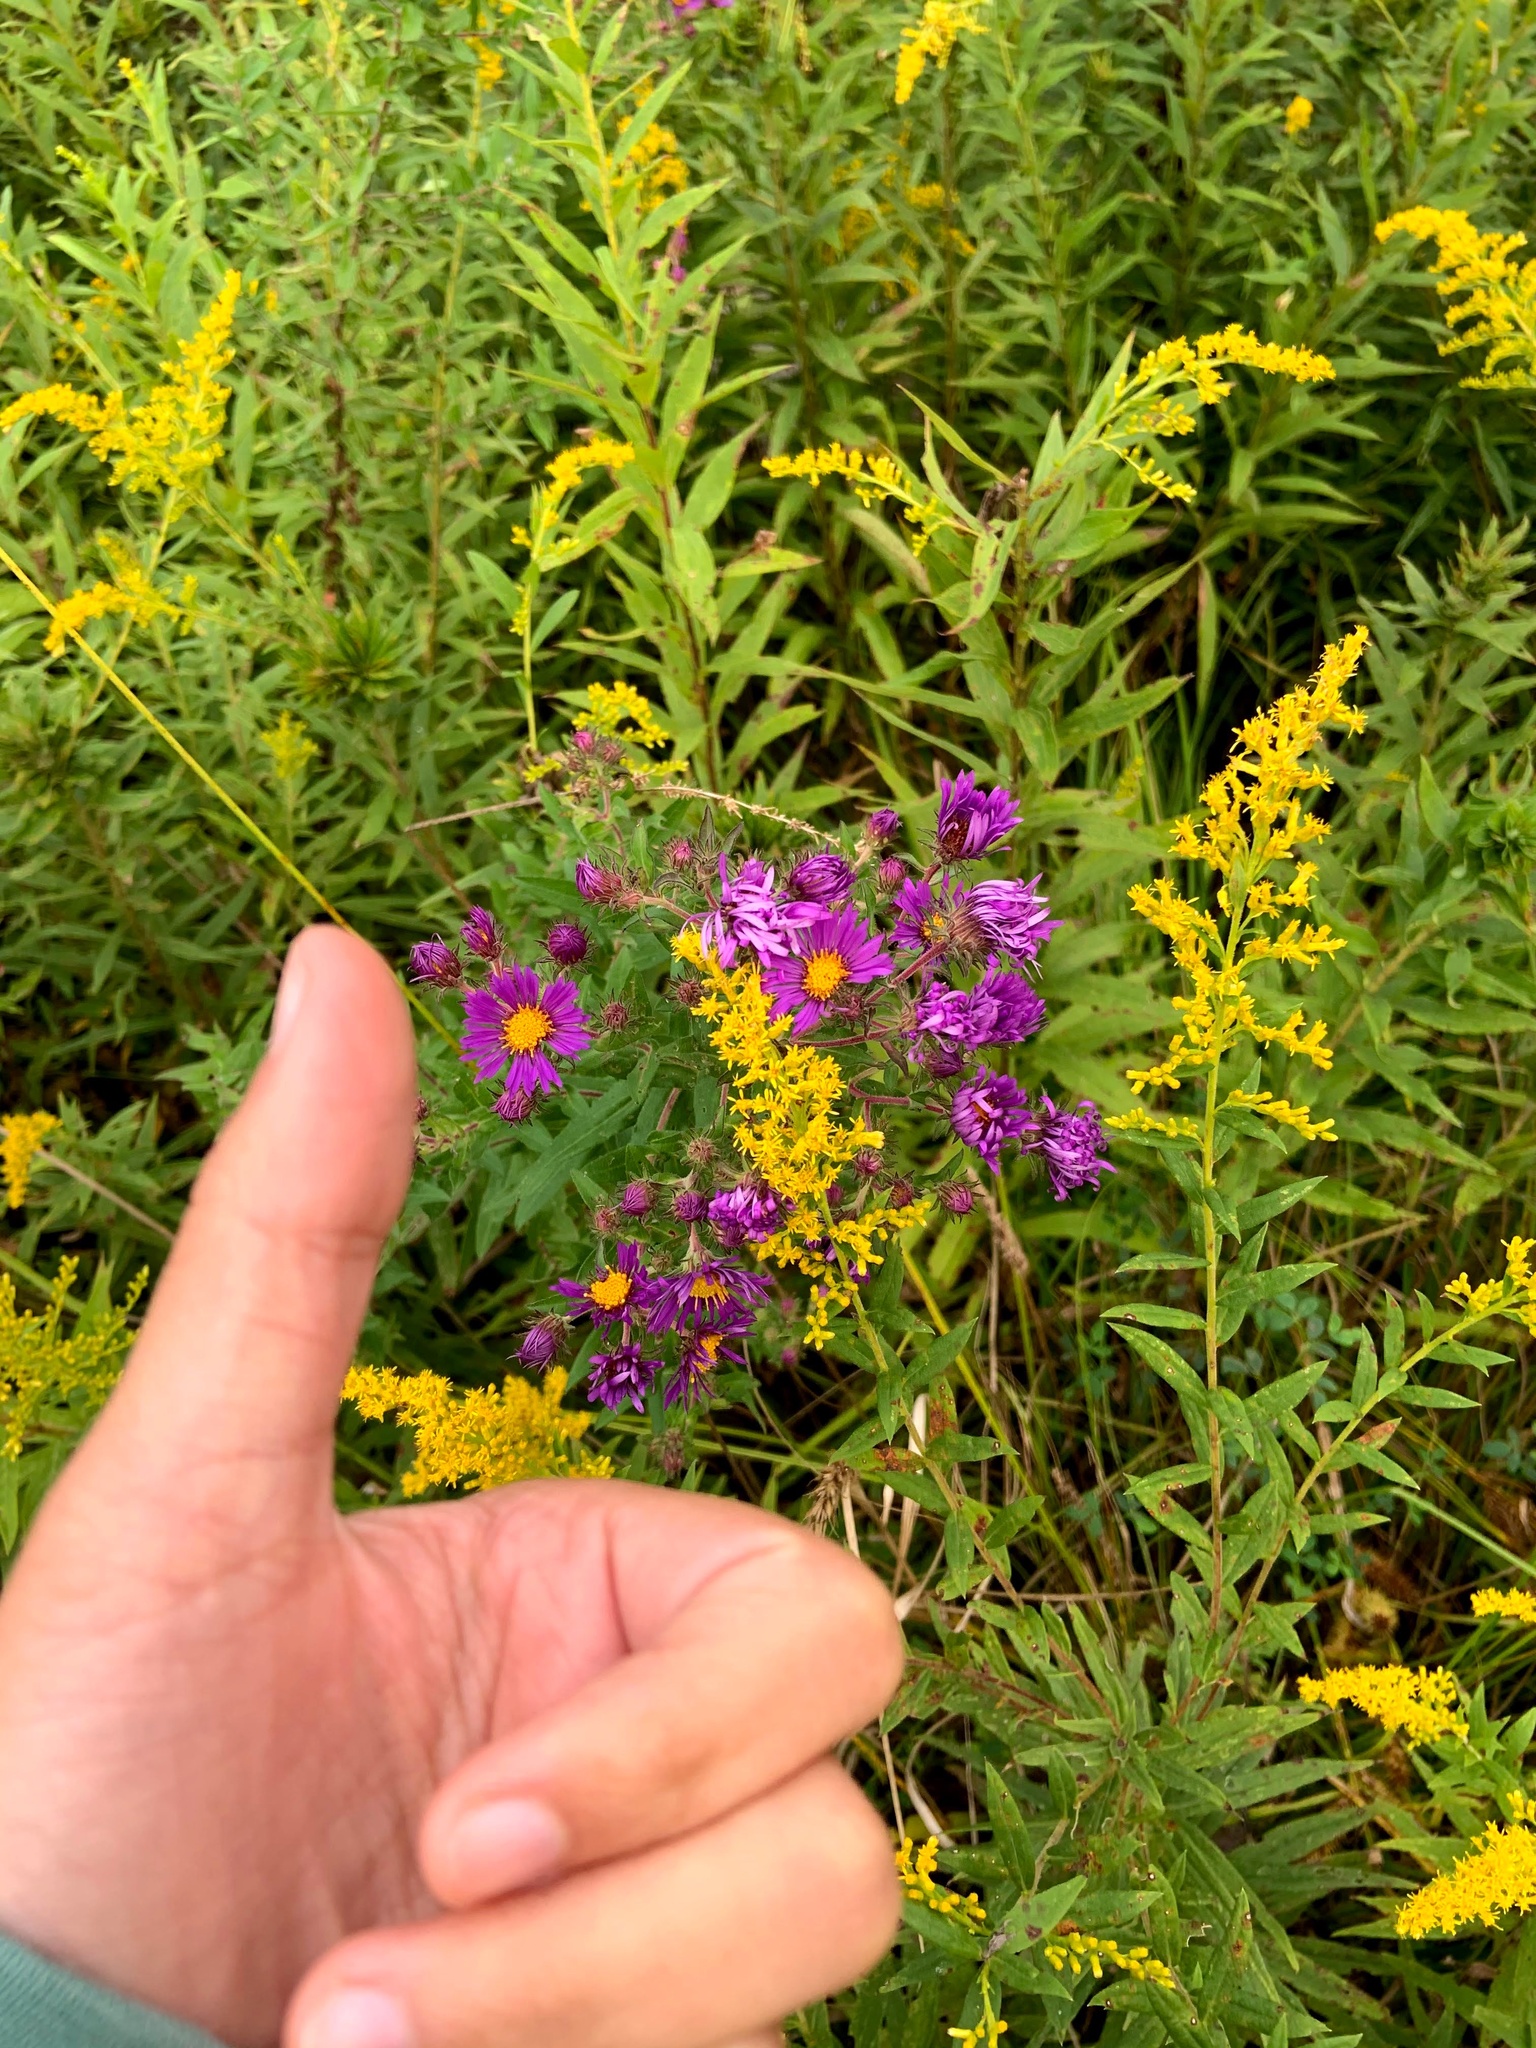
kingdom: Plantae
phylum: Tracheophyta
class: Magnoliopsida
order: Asterales
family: Asteraceae
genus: Symphyotrichum
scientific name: Symphyotrichum novae-angliae
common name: Michaelmas daisy
